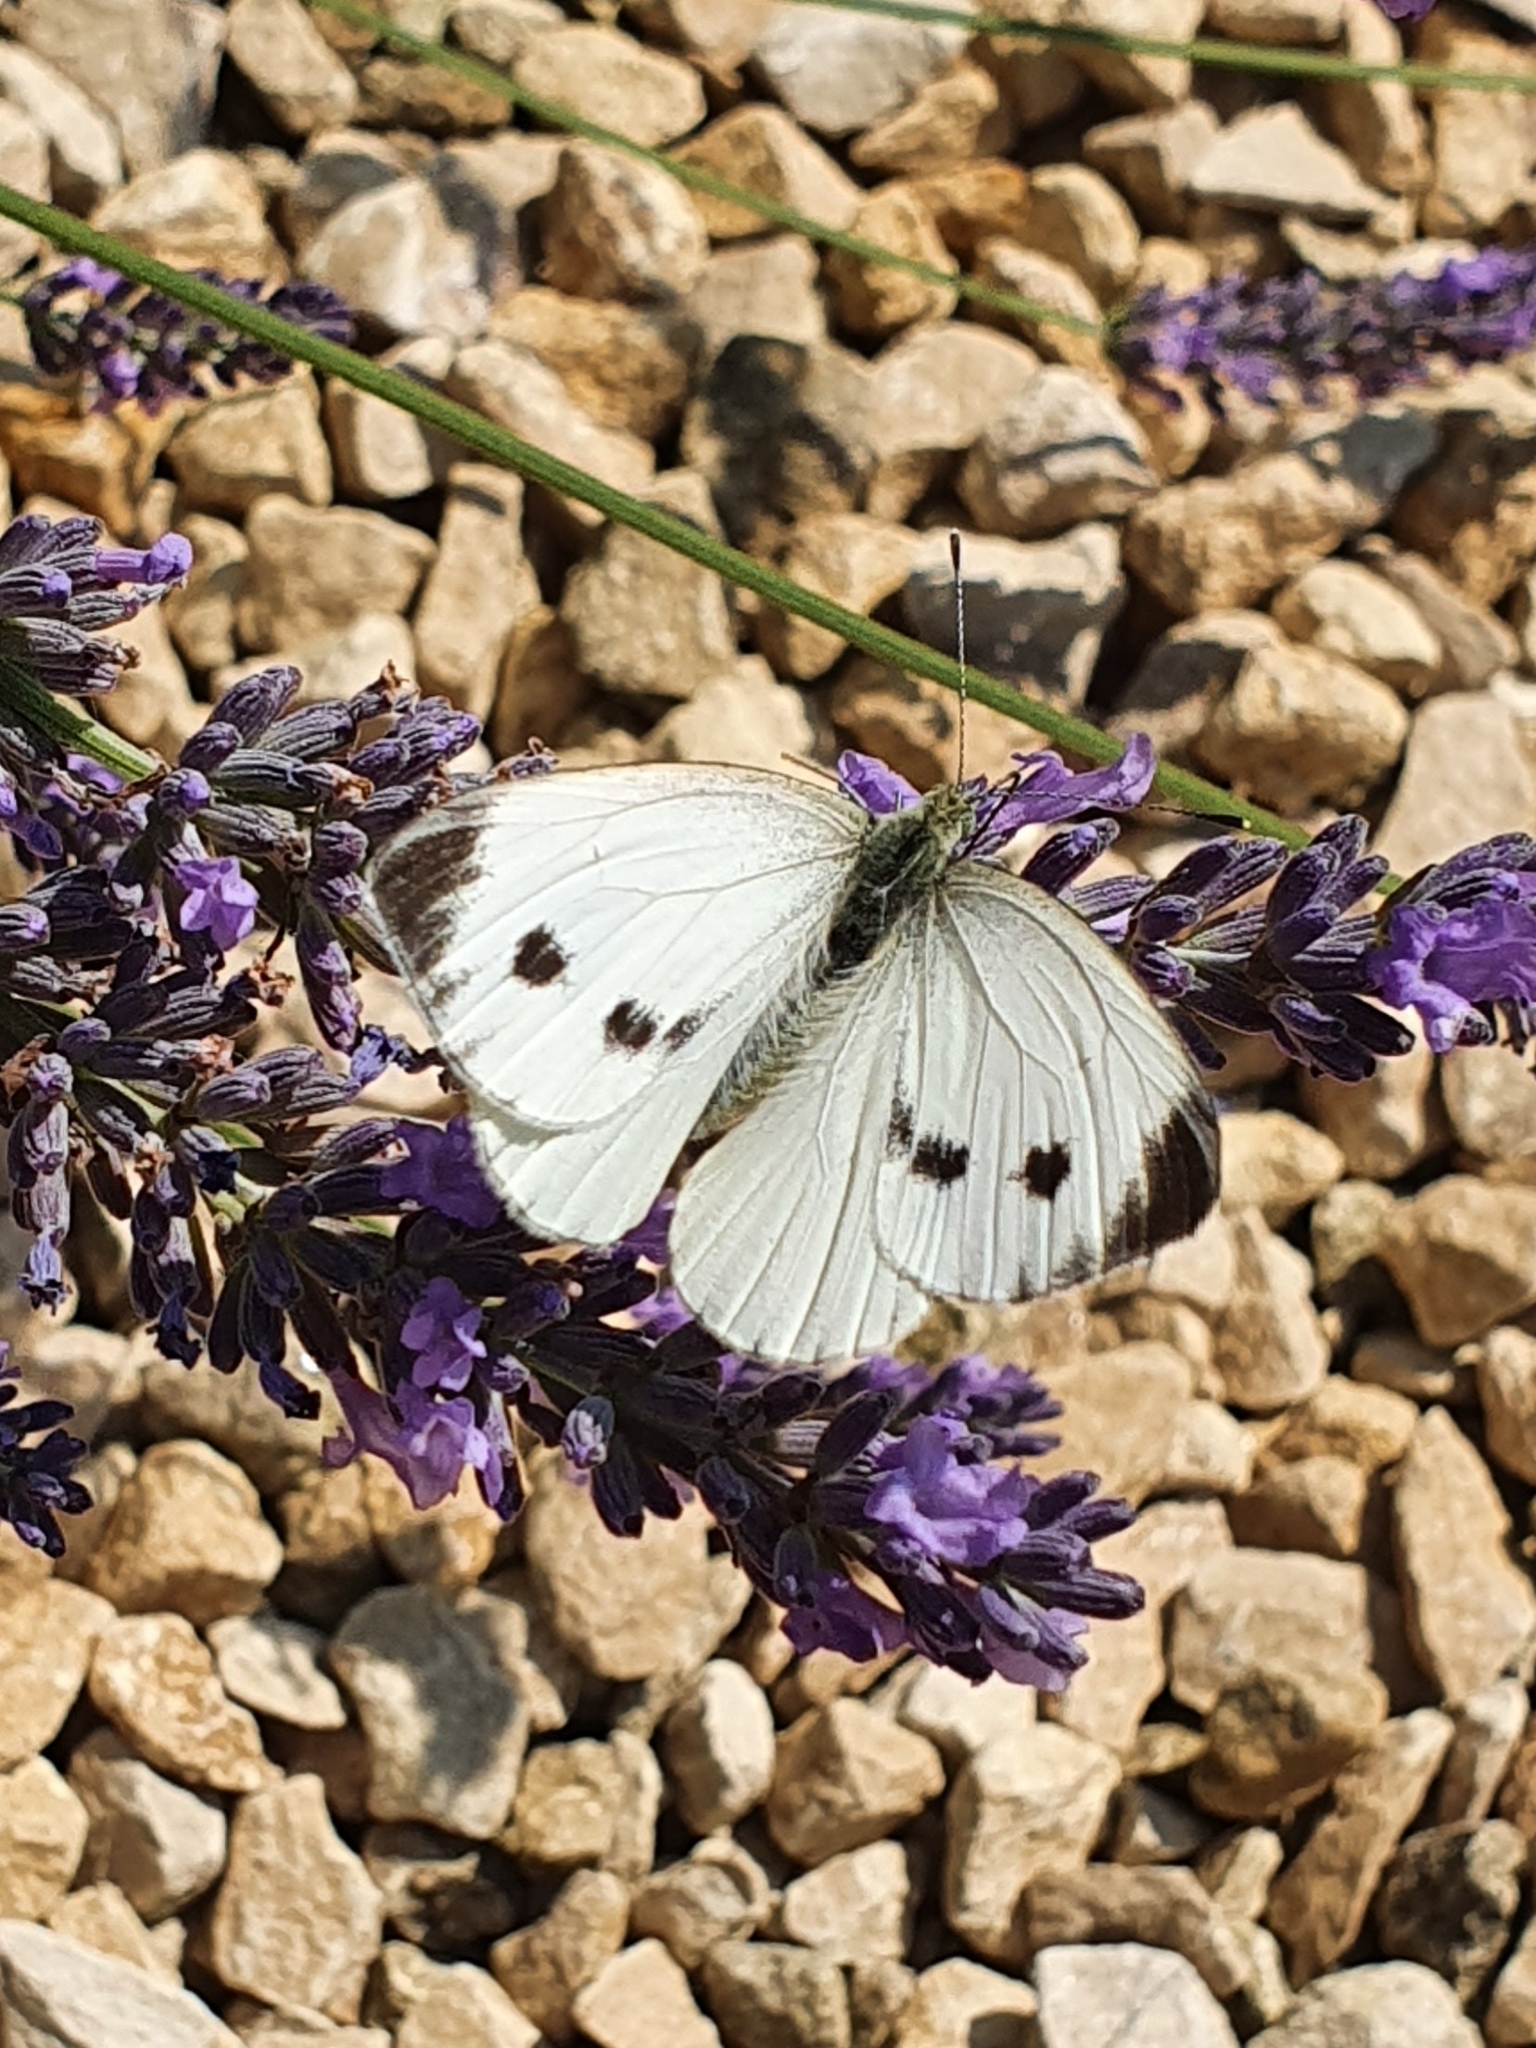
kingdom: Animalia
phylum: Arthropoda
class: Insecta
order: Lepidoptera
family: Pieridae
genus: Pieris
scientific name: Pieris napi
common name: Green-veined white
